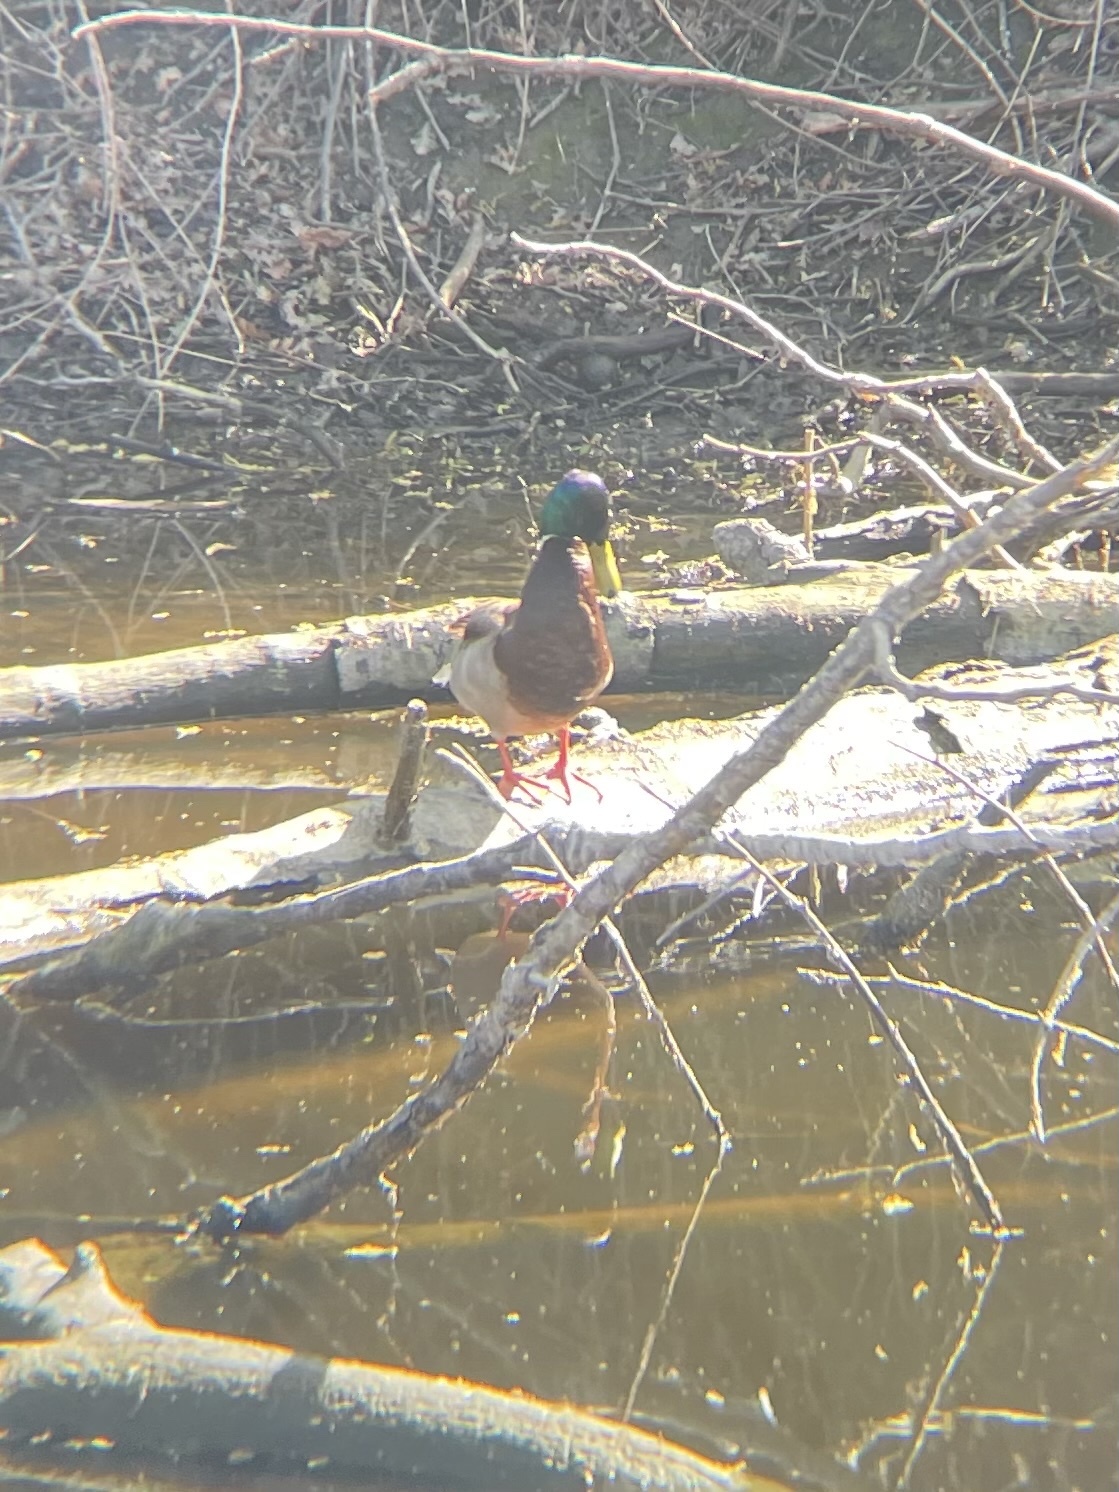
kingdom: Animalia
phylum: Chordata
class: Aves
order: Anseriformes
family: Anatidae
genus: Anas
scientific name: Anas platyrhynchos
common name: Mallard
